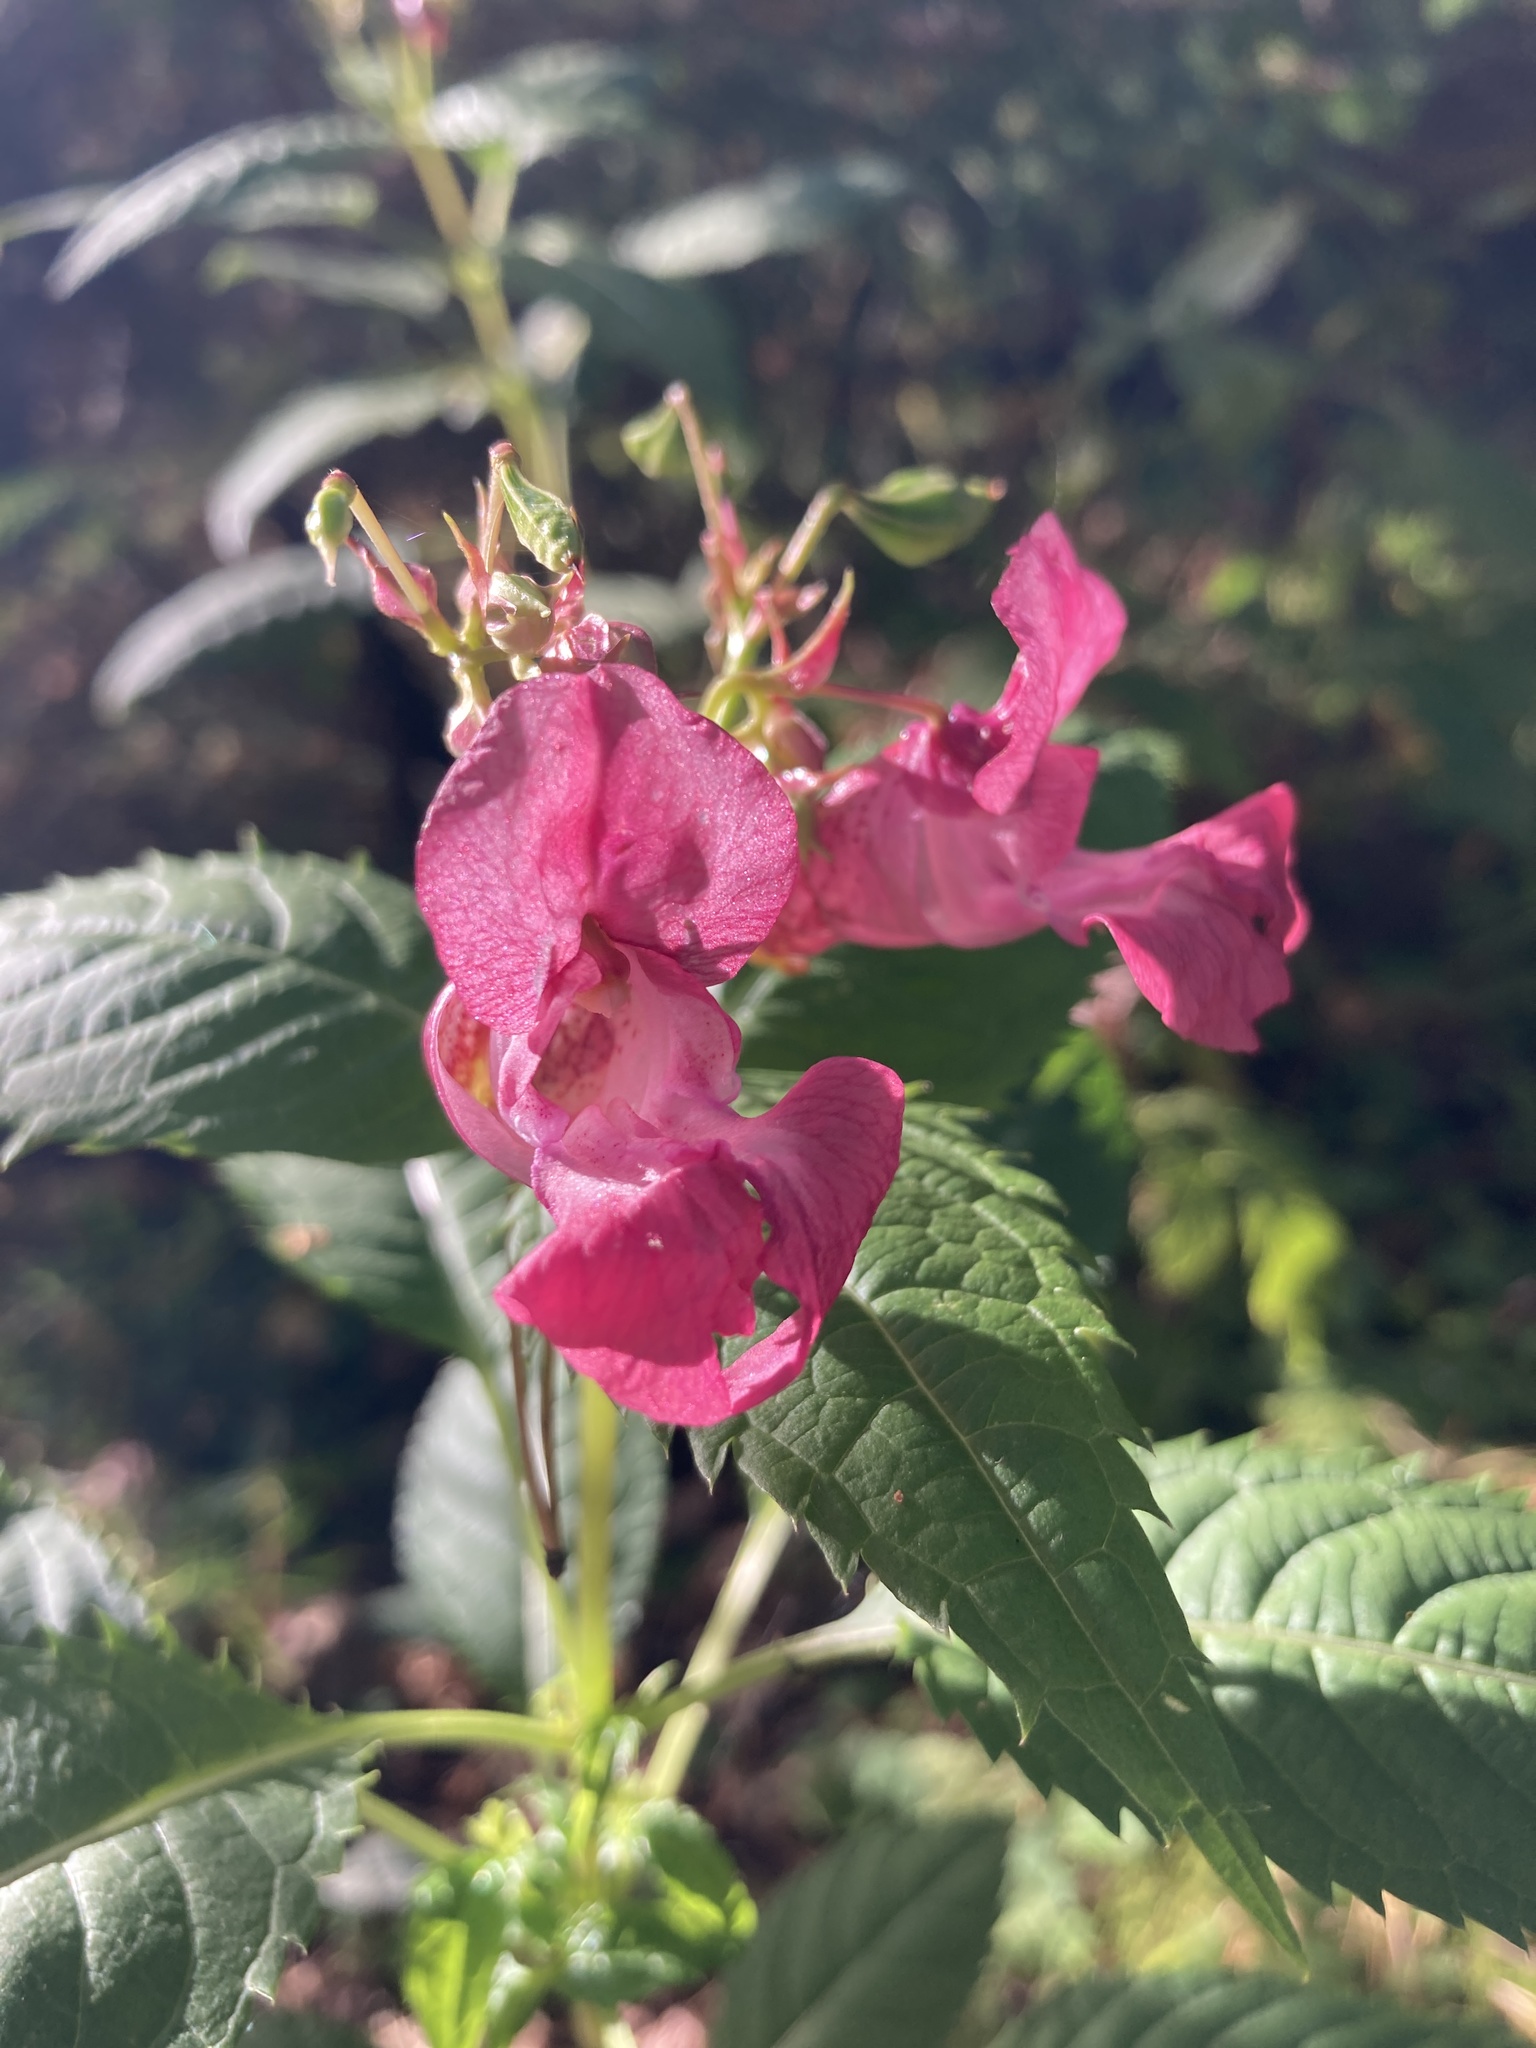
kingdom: Plantae
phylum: Tracheophyta
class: Magnoliopsida
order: Ericales
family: Balsaminaceae
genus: Impatiens
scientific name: Impatiens glandulifera
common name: Himalayan balsam
